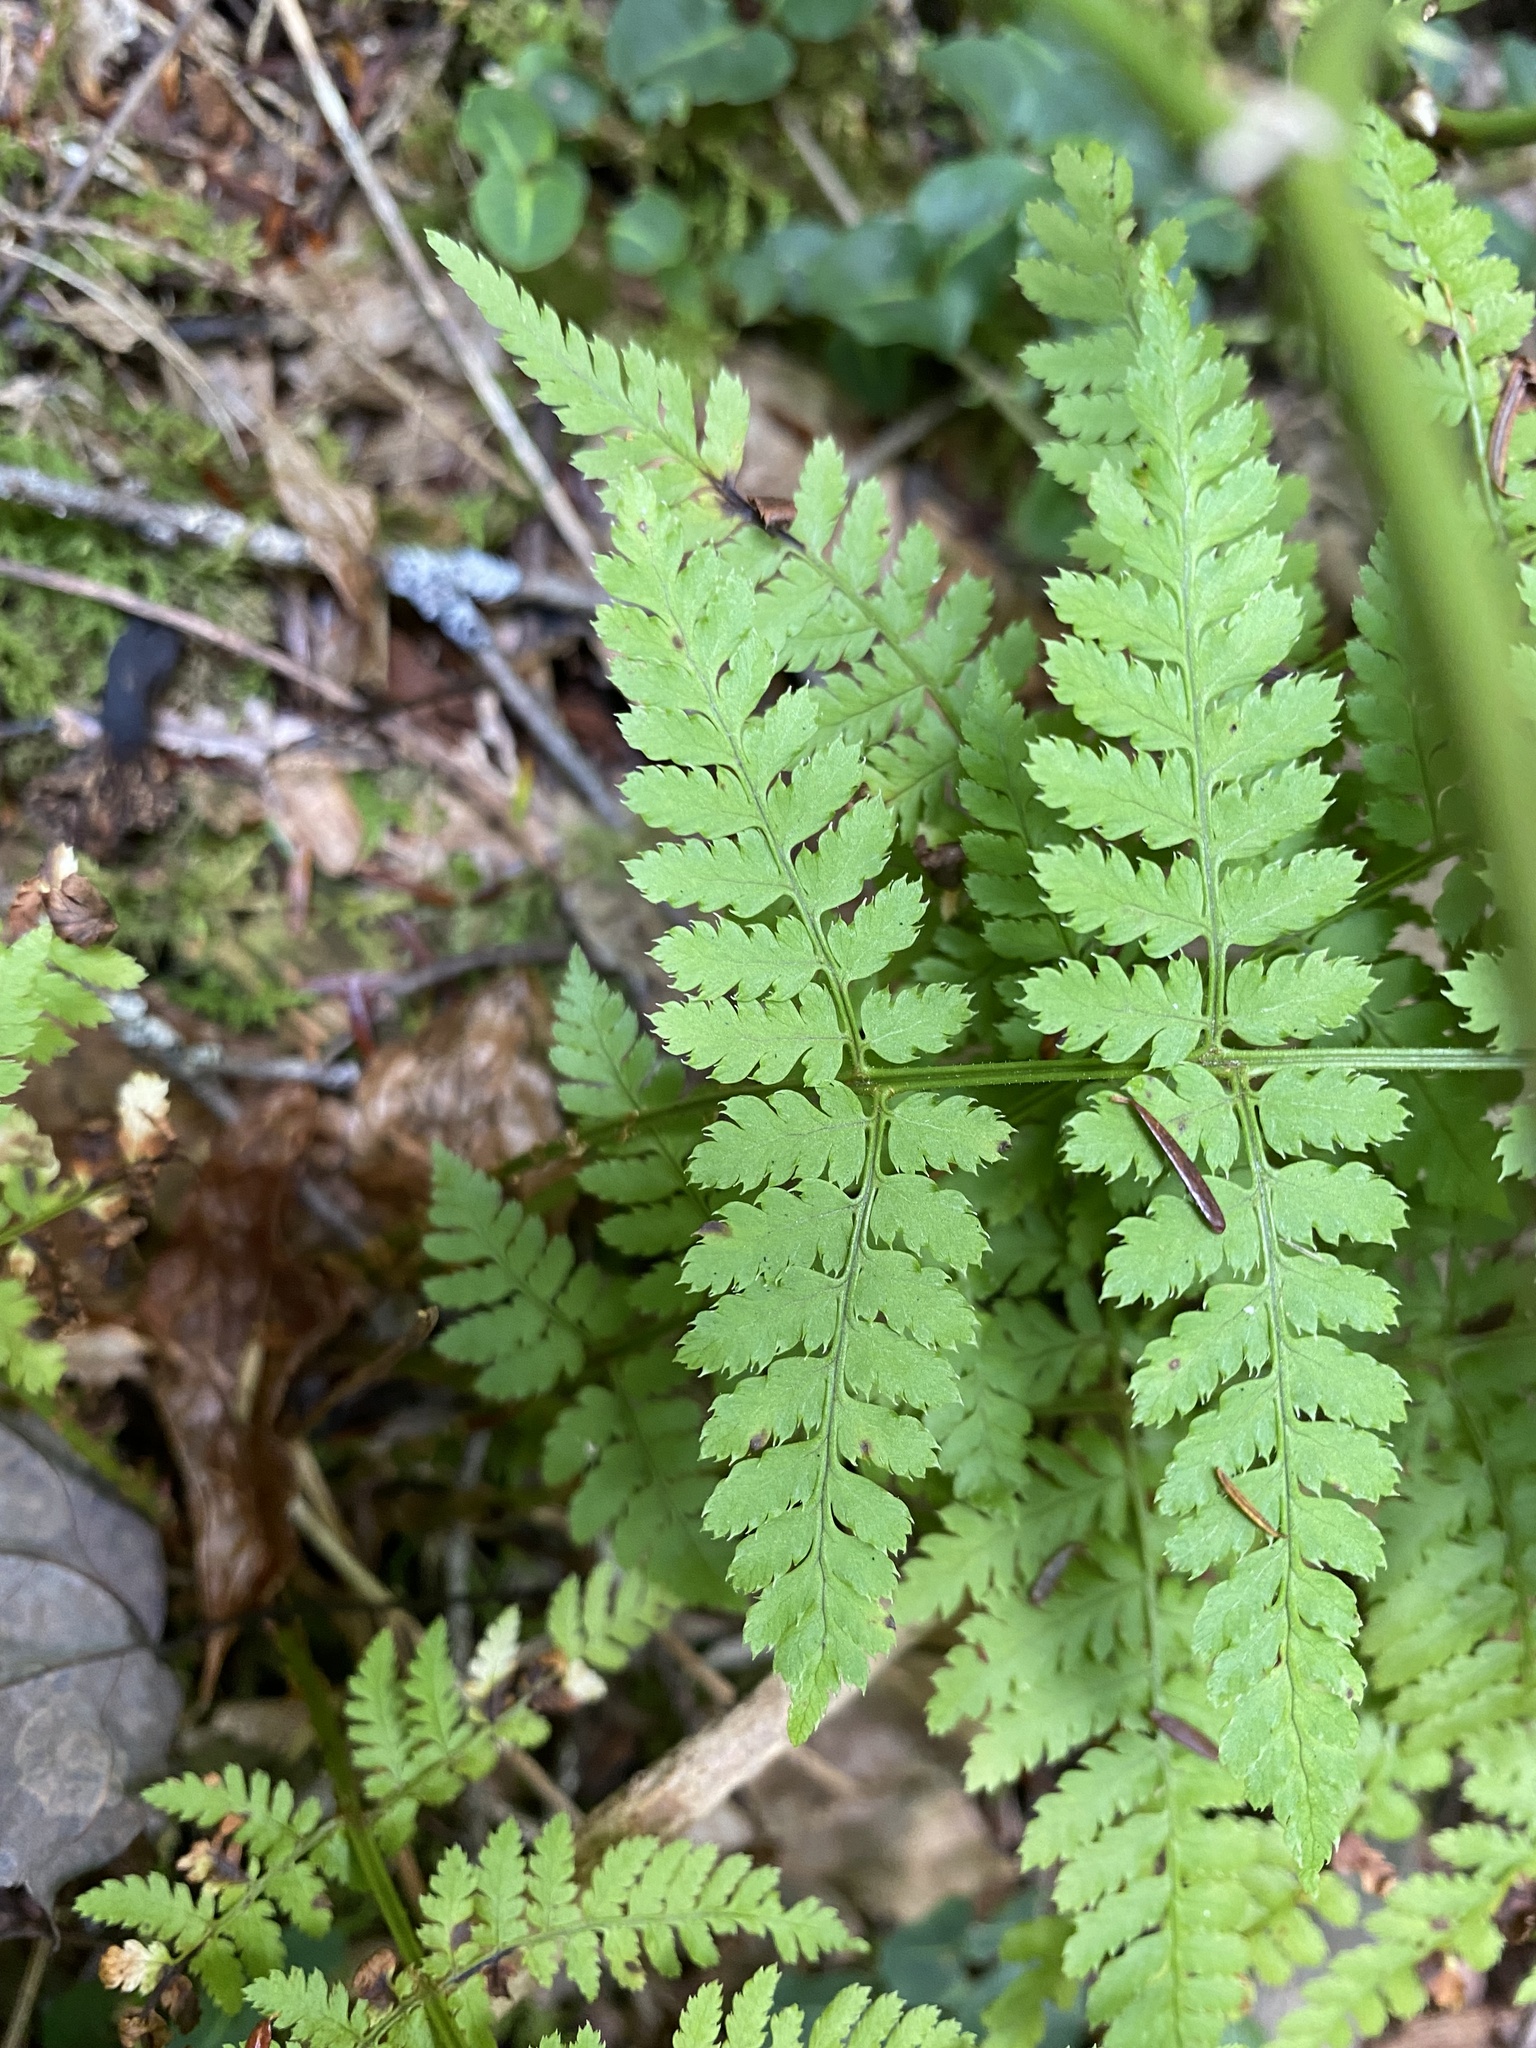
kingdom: Plantae
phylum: Tracheophyta
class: Polypodiopsida
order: Polypodiales
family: Dryopteridaceae
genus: Dryopteris
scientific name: Dryopteris intermedia
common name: Evergreen wood fern
